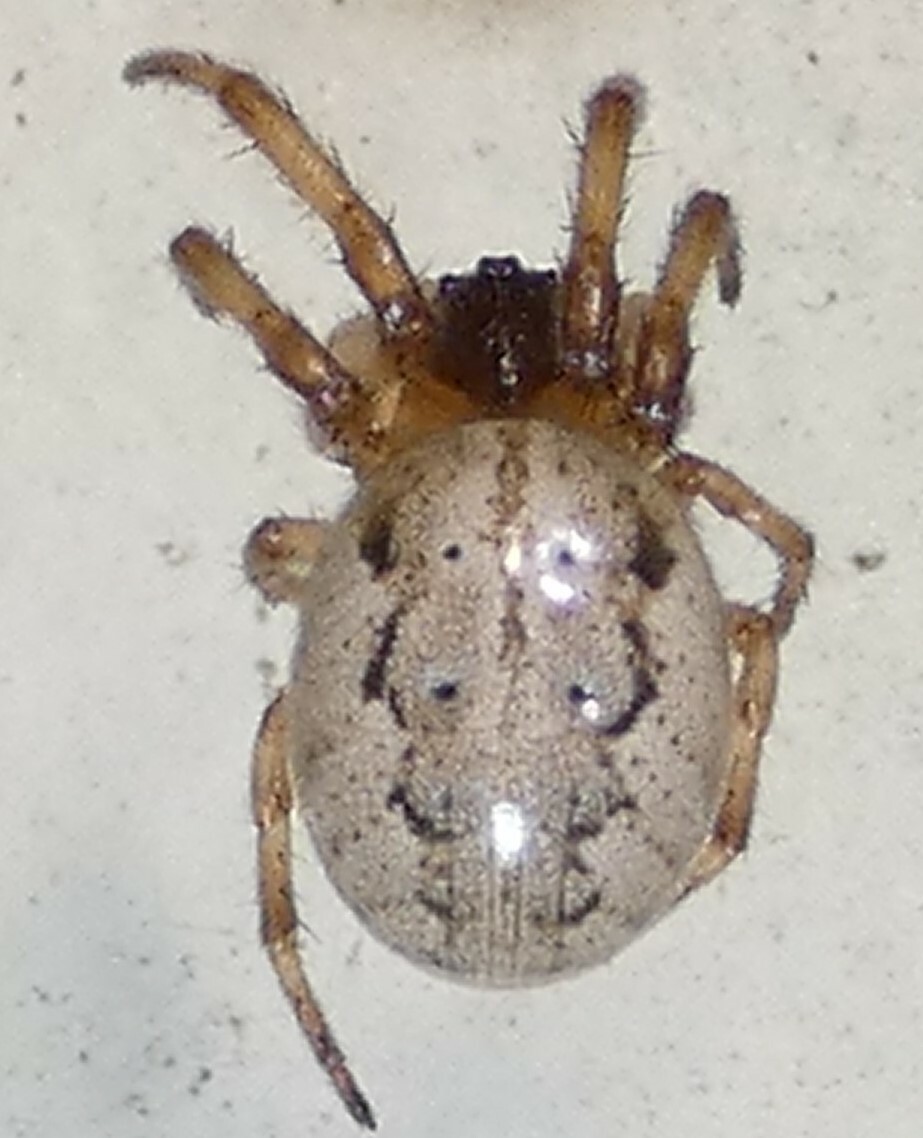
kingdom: Animalia
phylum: Arthropoda
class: Arachnida
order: Araneae
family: Araneidae
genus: Metazygia
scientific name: Metazygia wittfeldae
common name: Orb weavers
